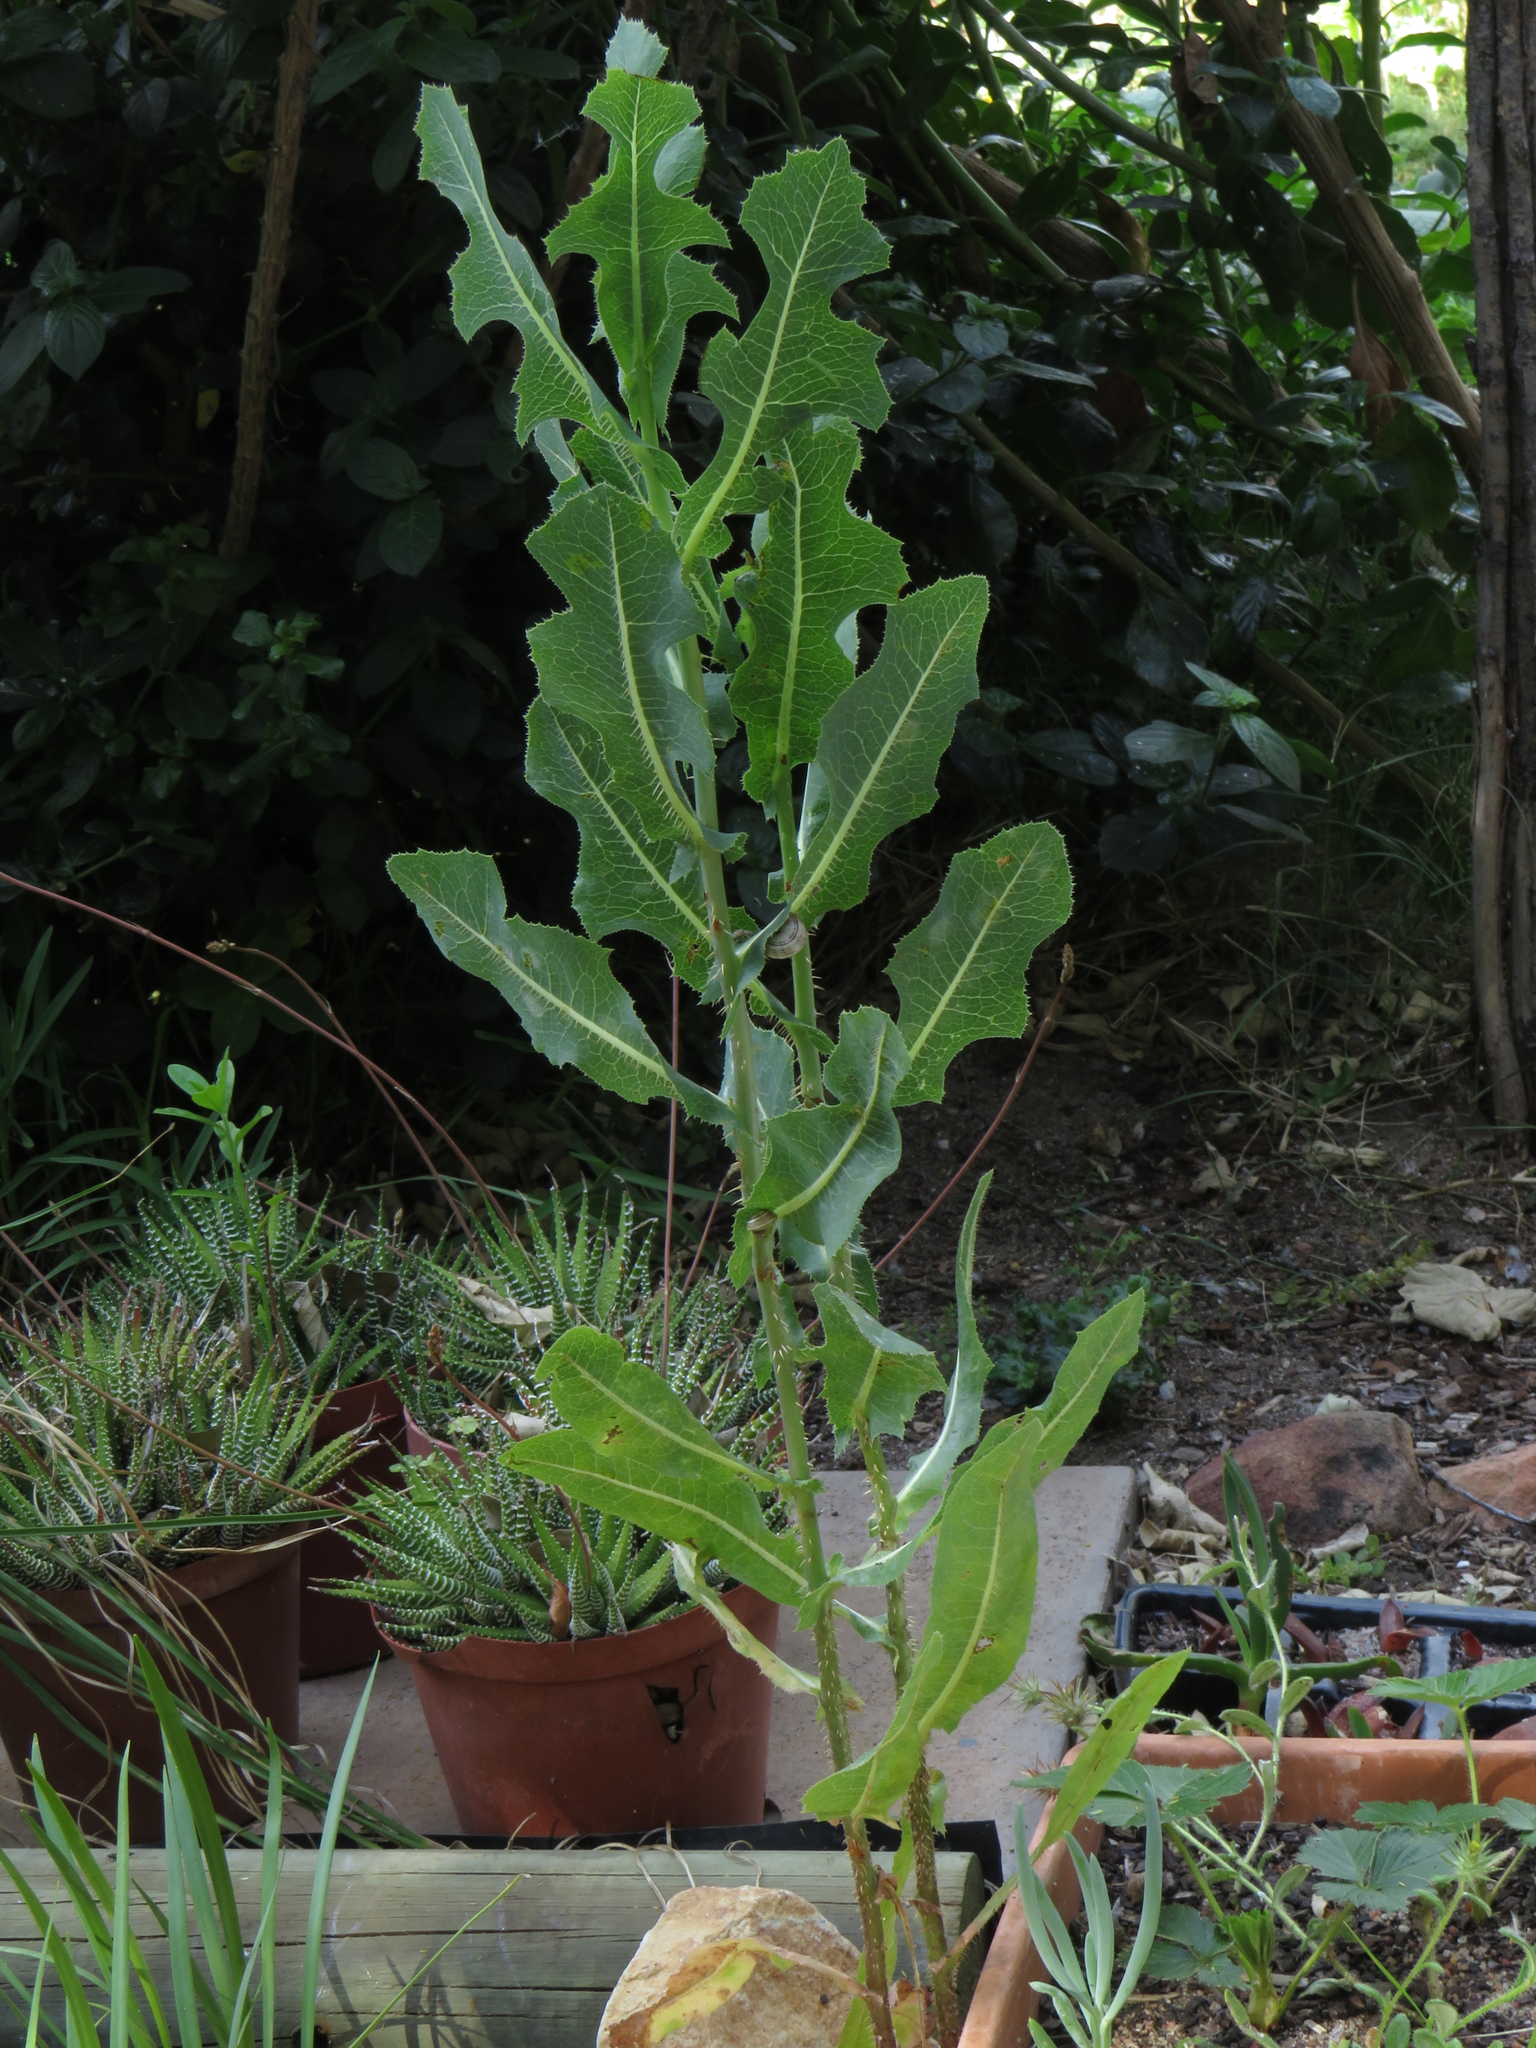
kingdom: Plantae
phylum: Tracheophyta
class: Magnoliopsida
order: Asterales
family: Asteraceae
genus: Lactuca
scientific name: Lactuca serriola
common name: Prickly lettuce
